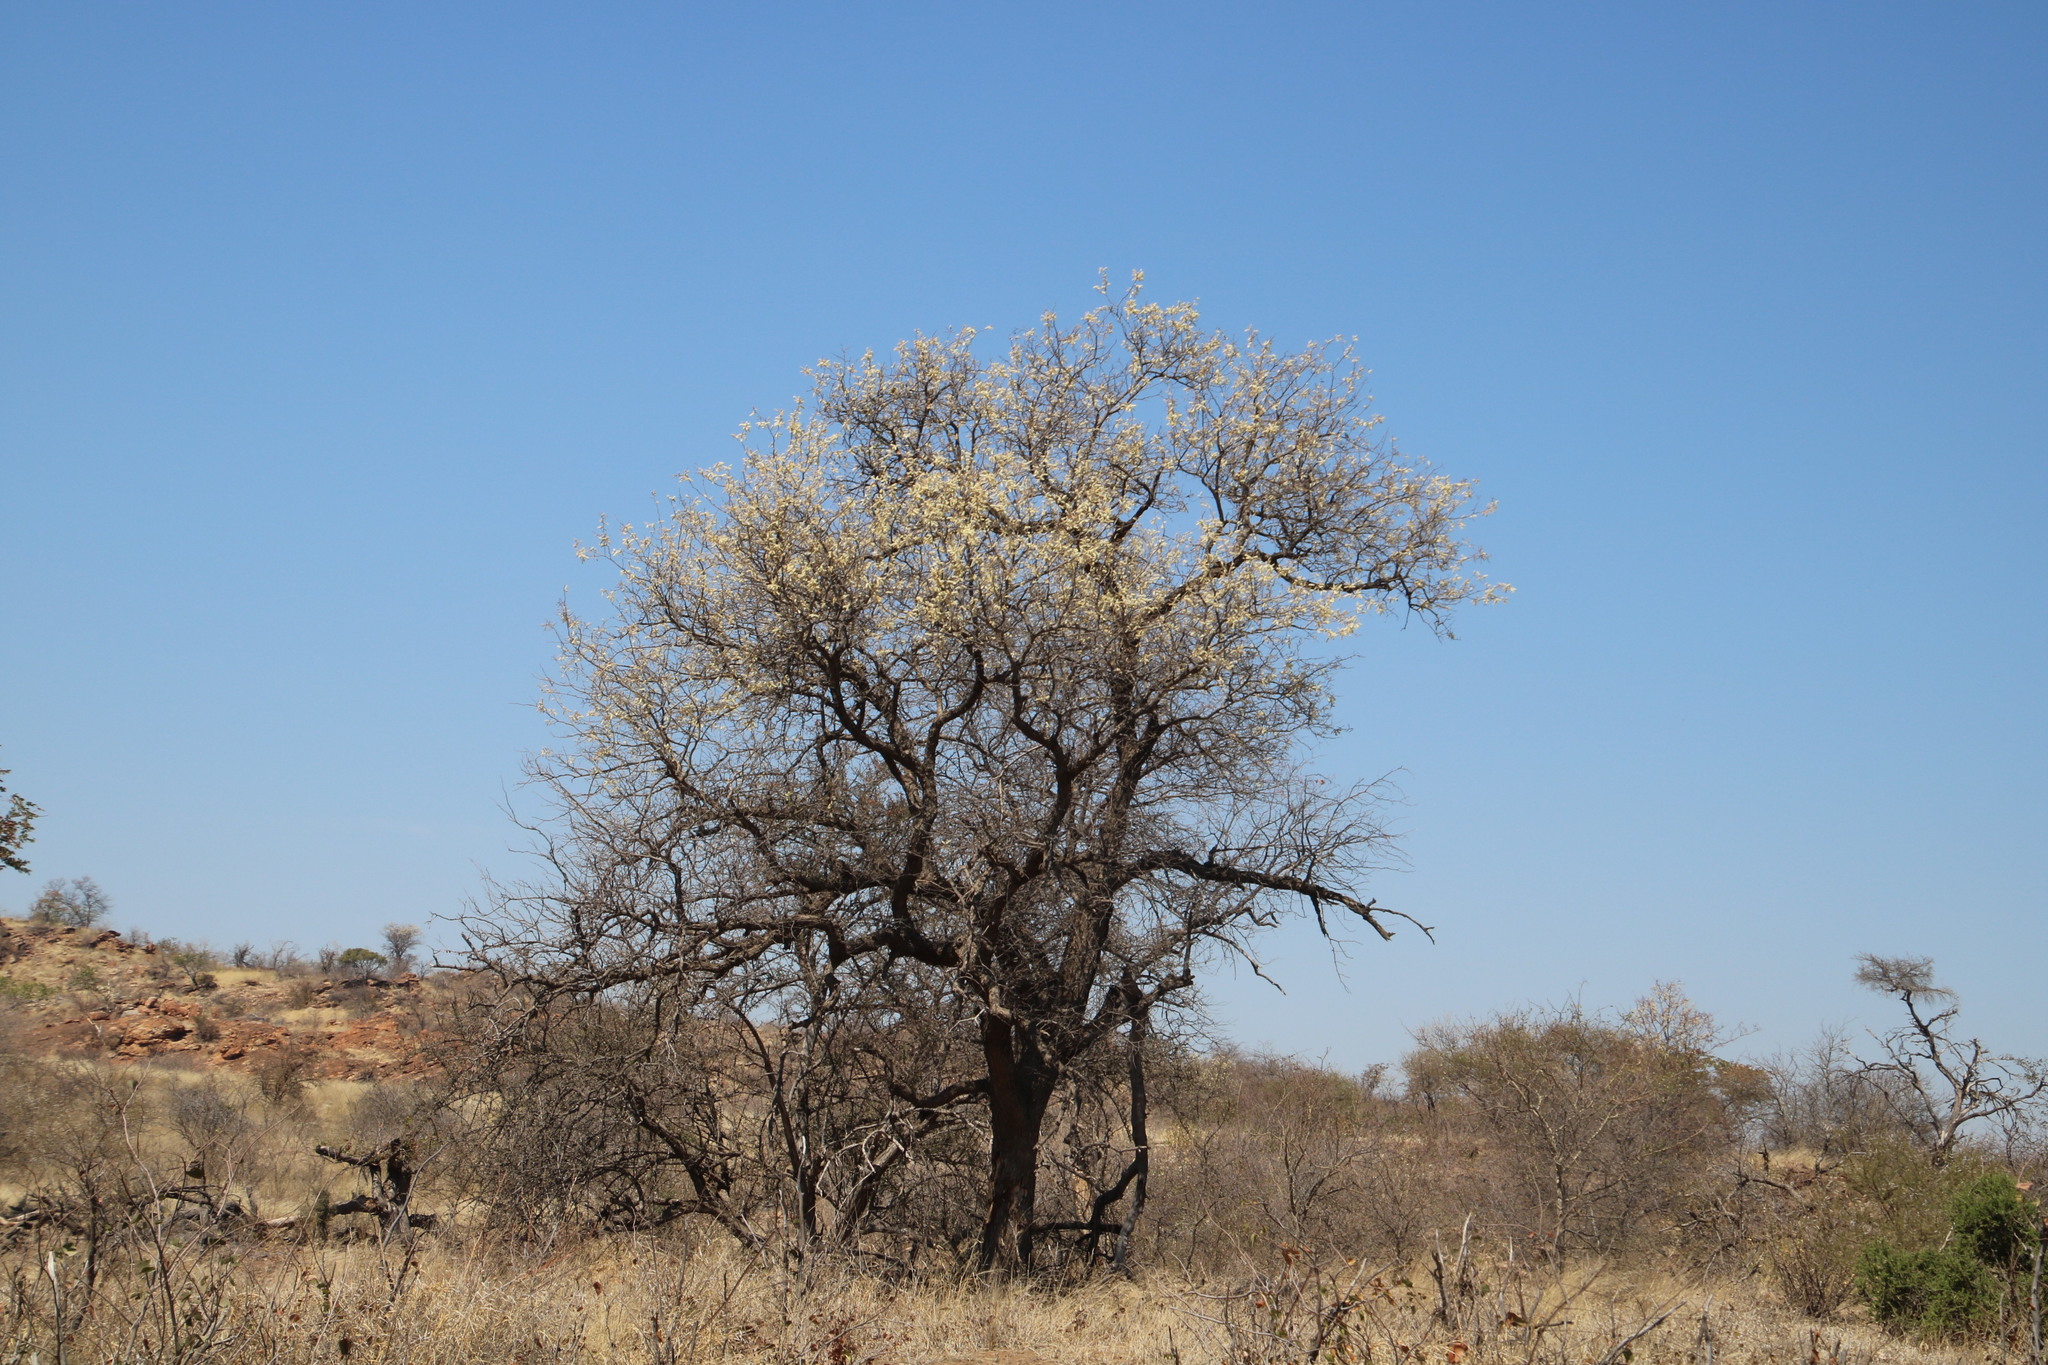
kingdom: Plantae
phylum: Tracheophyta
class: Magnoliopsida
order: Fabales
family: Fabaceae
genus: Senegalia
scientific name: Senegalia nigrescens
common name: Knobthorn
